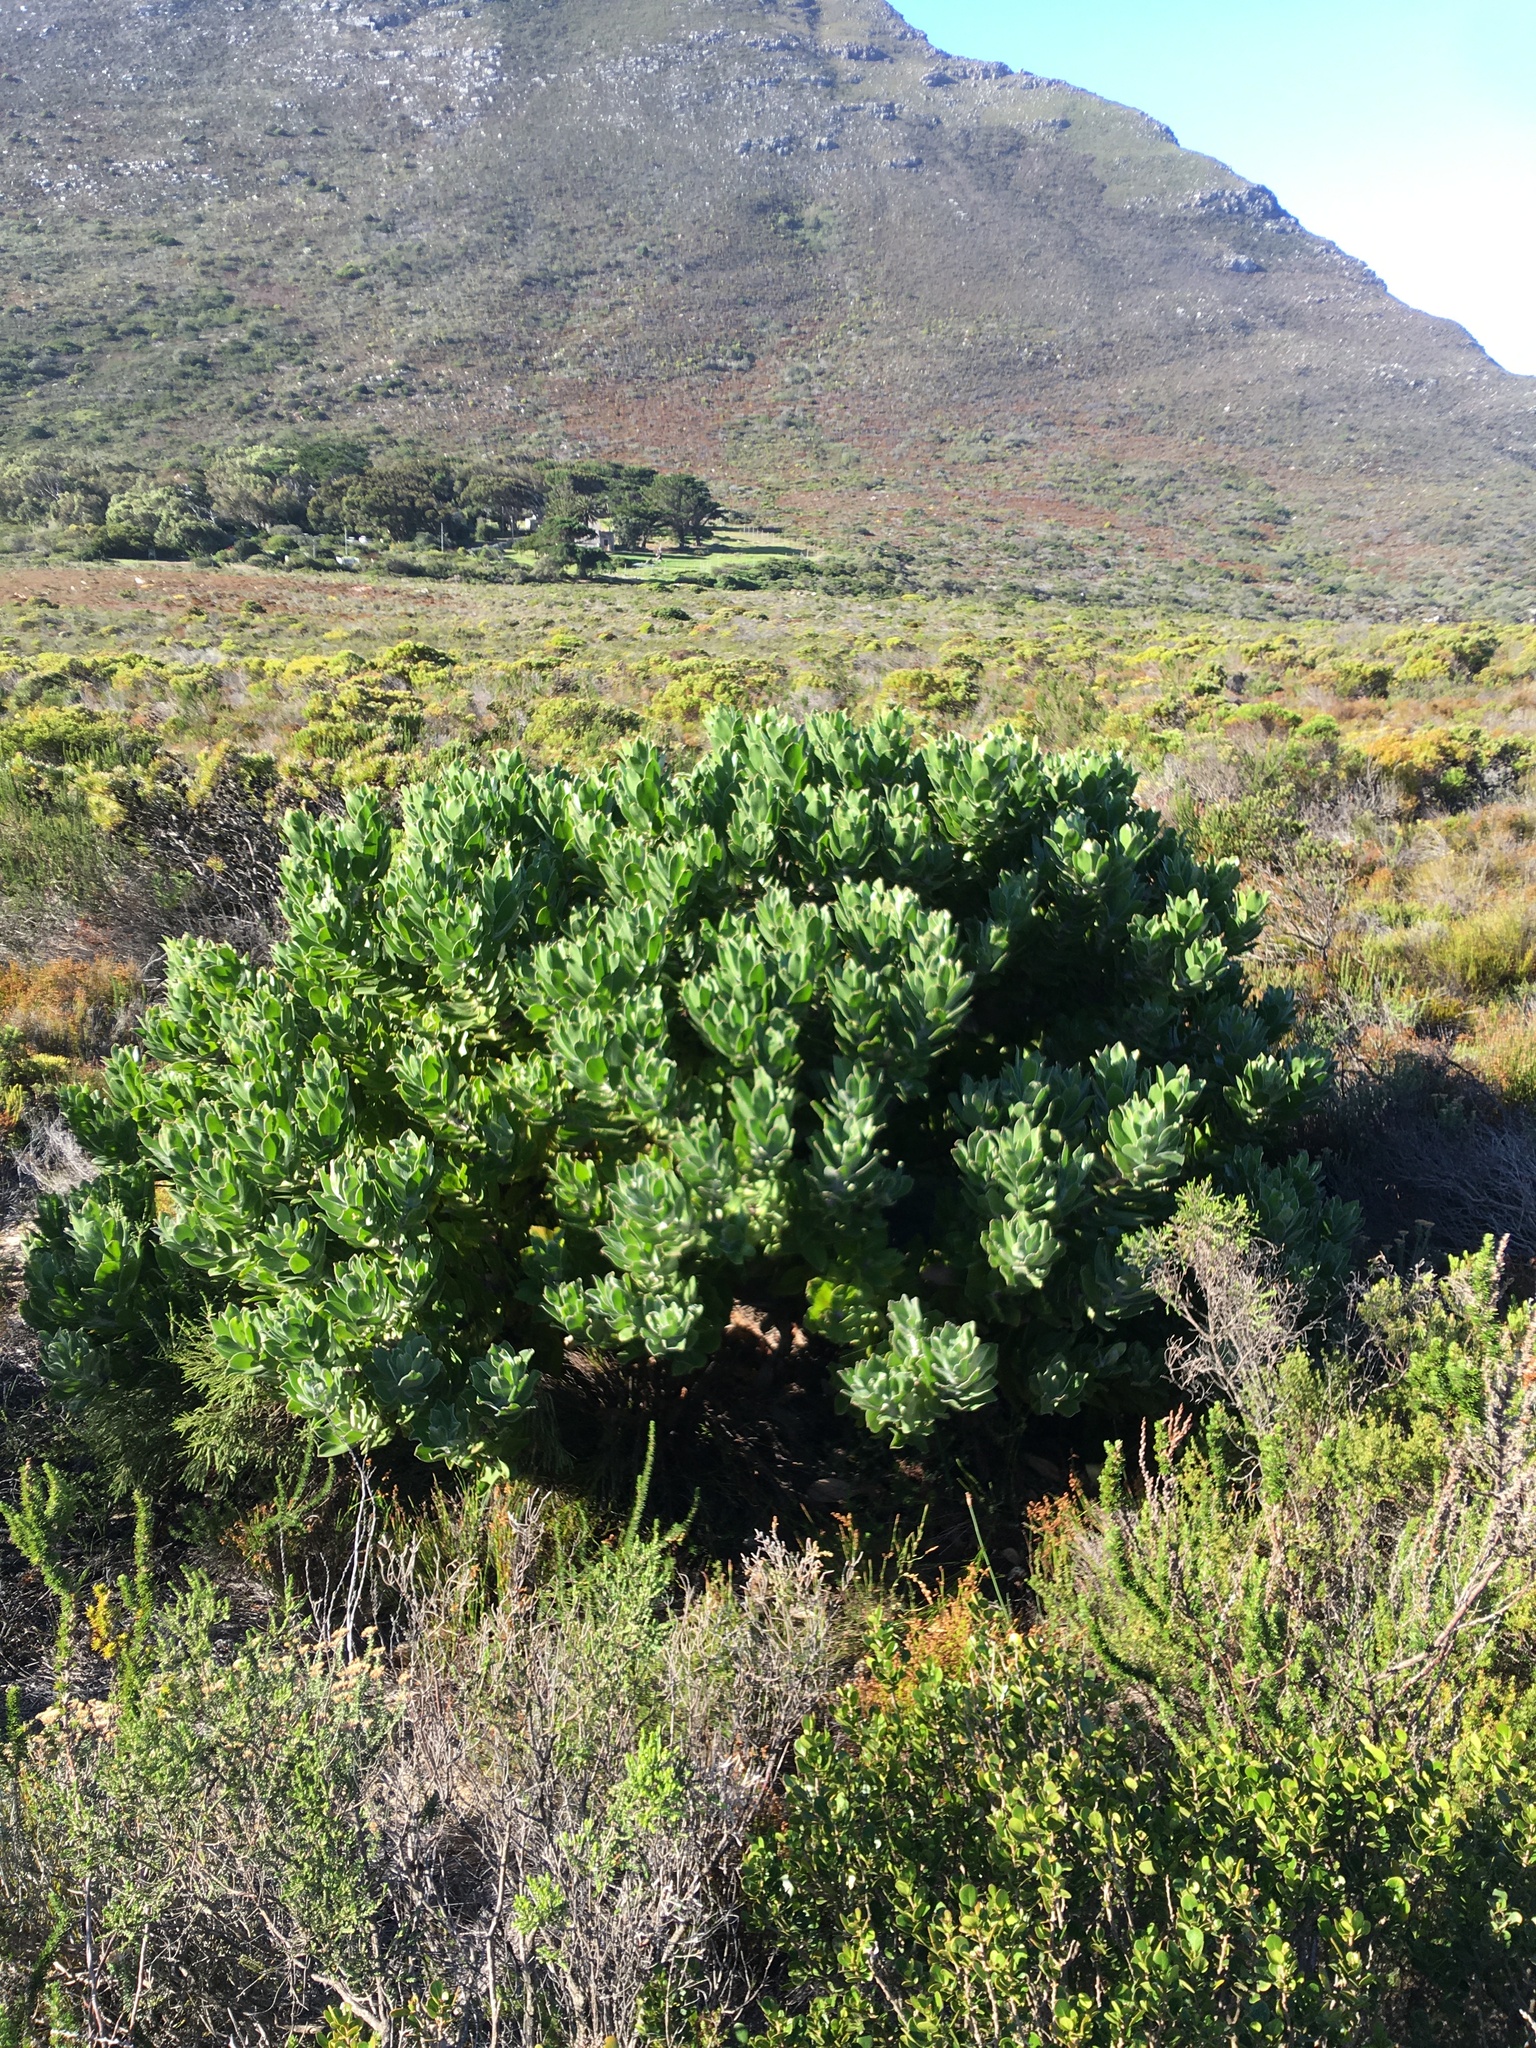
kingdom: Plantae
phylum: Tracheophyta
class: Magnoliopsida
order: Proteales
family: Proteaceae
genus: Mimetes
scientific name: Mimetes fimbriifolius
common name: Fringed bottlebrush
